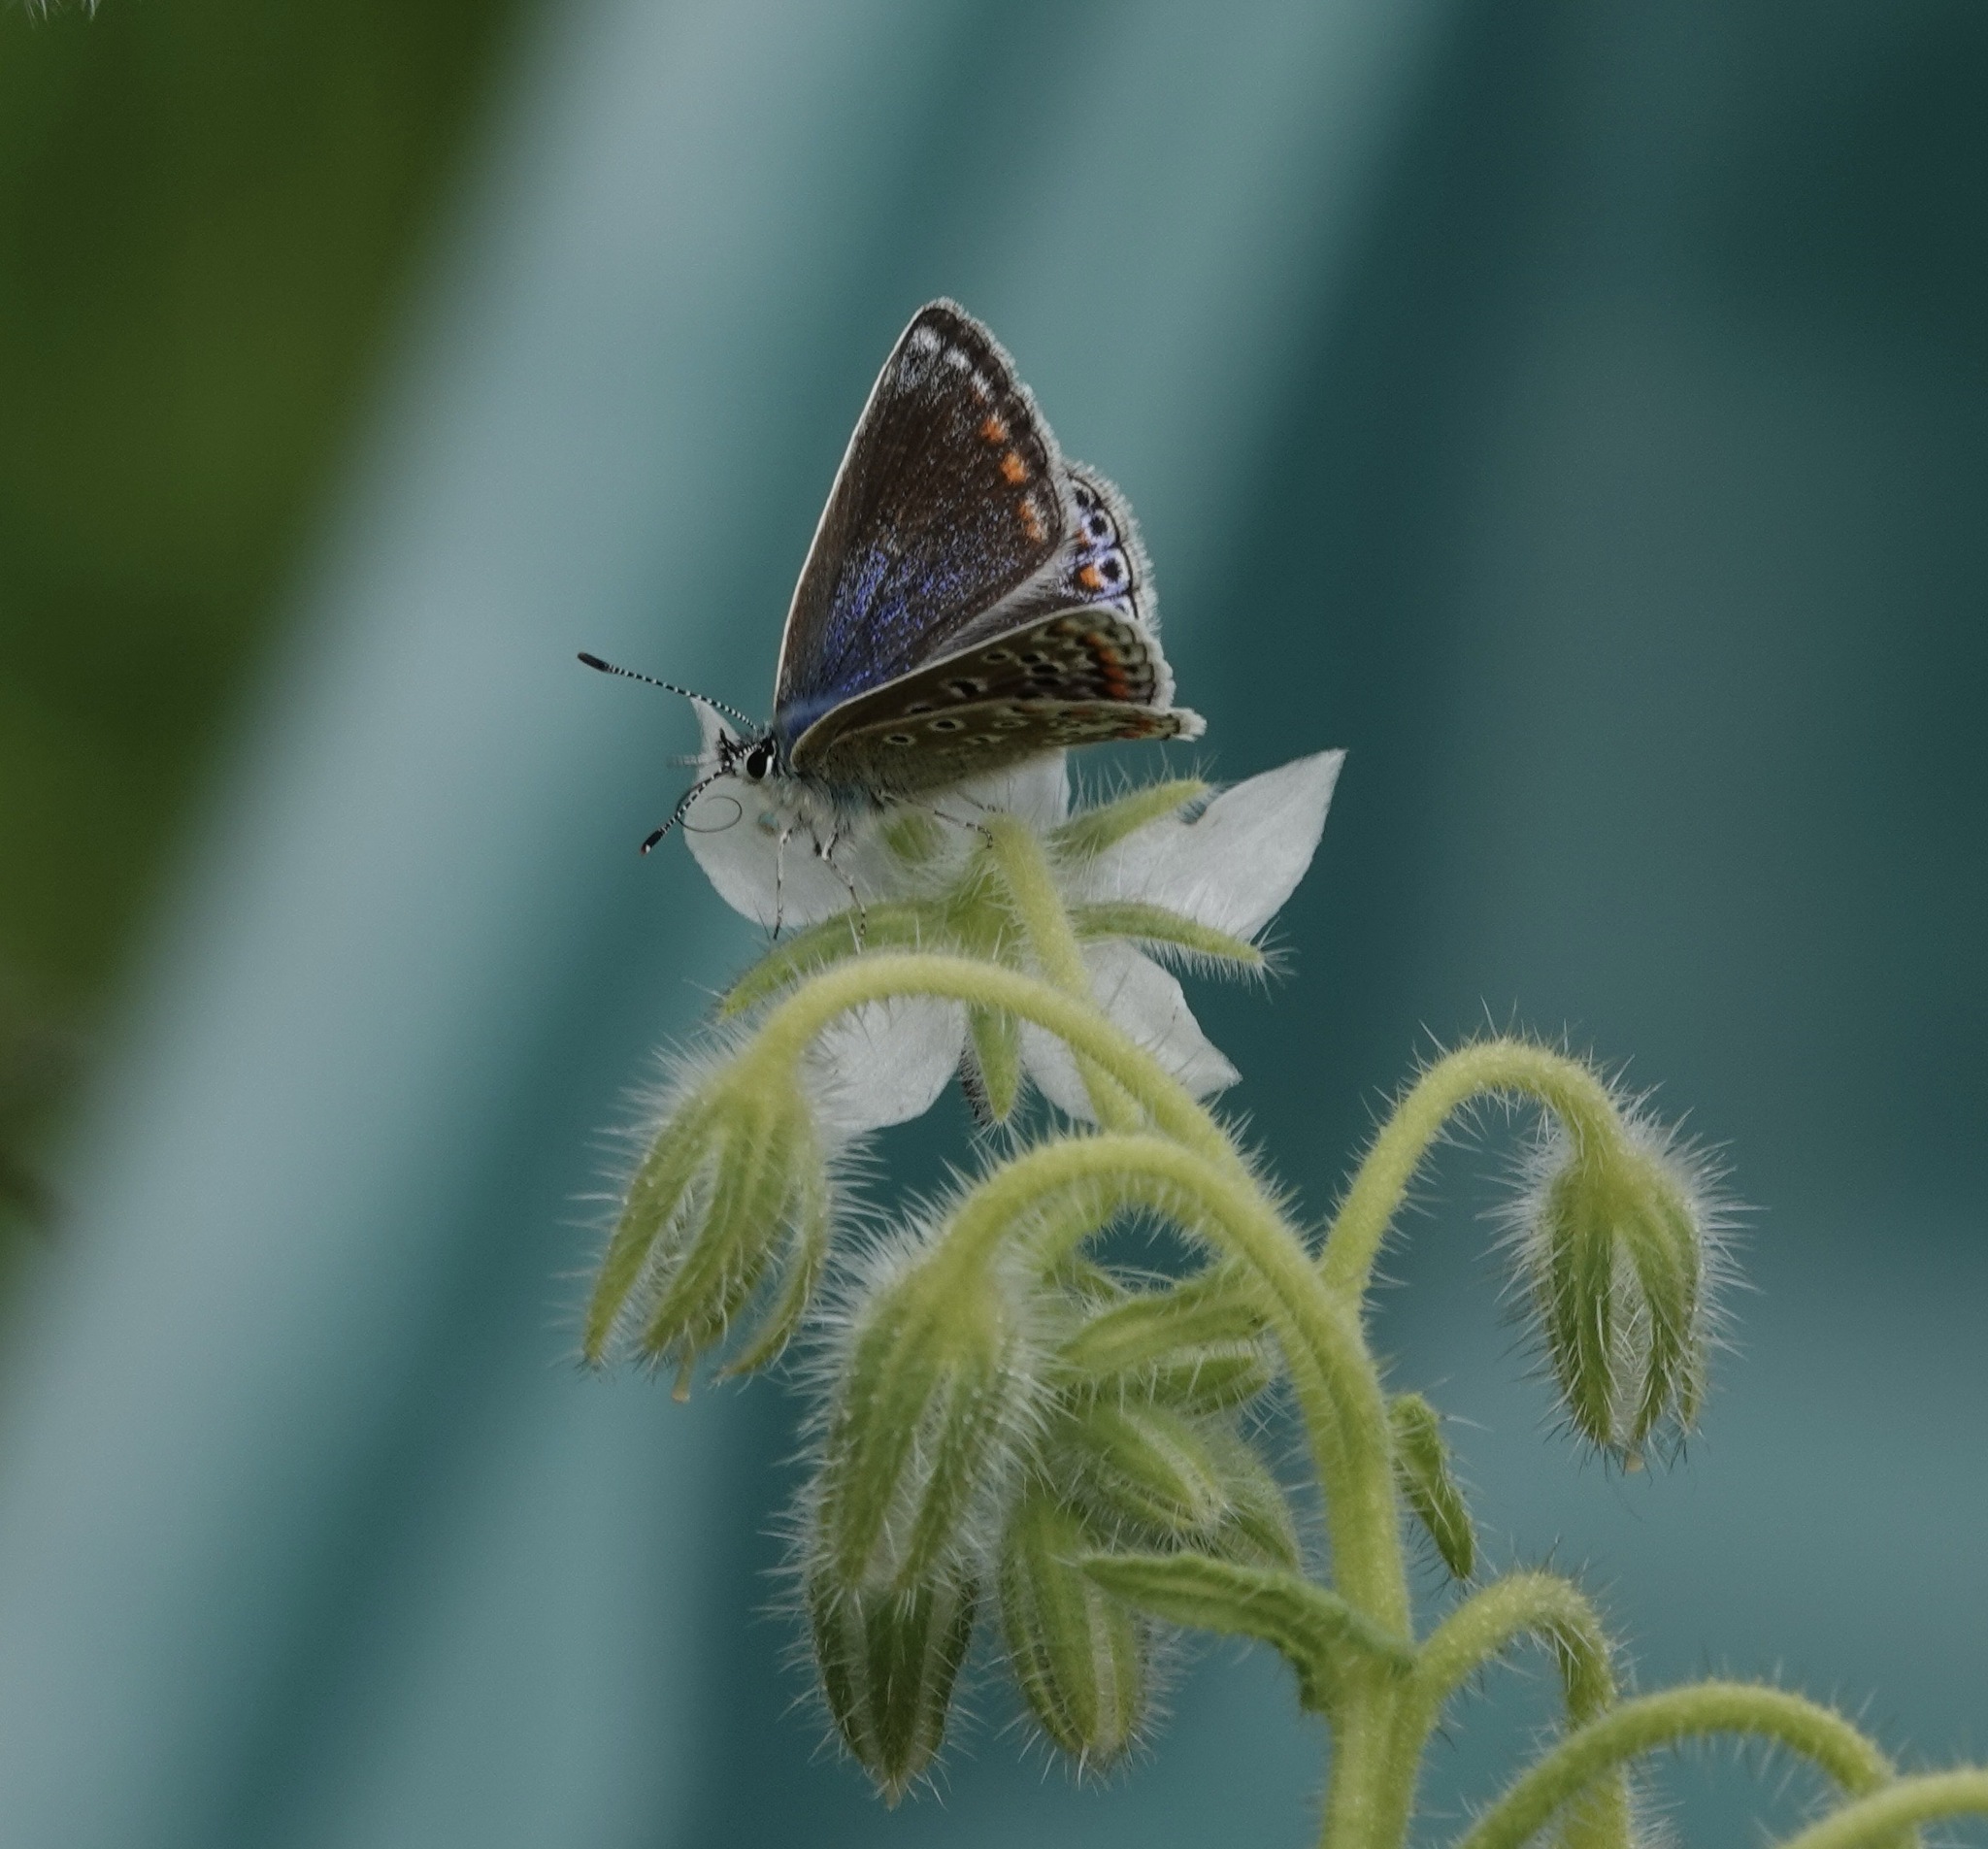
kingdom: Animalia
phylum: Arthropoda
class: Insecta
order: Lepidoptera
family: Lycaenidae
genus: Polyommatus
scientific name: Polyommatus icarus
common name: Common blue
